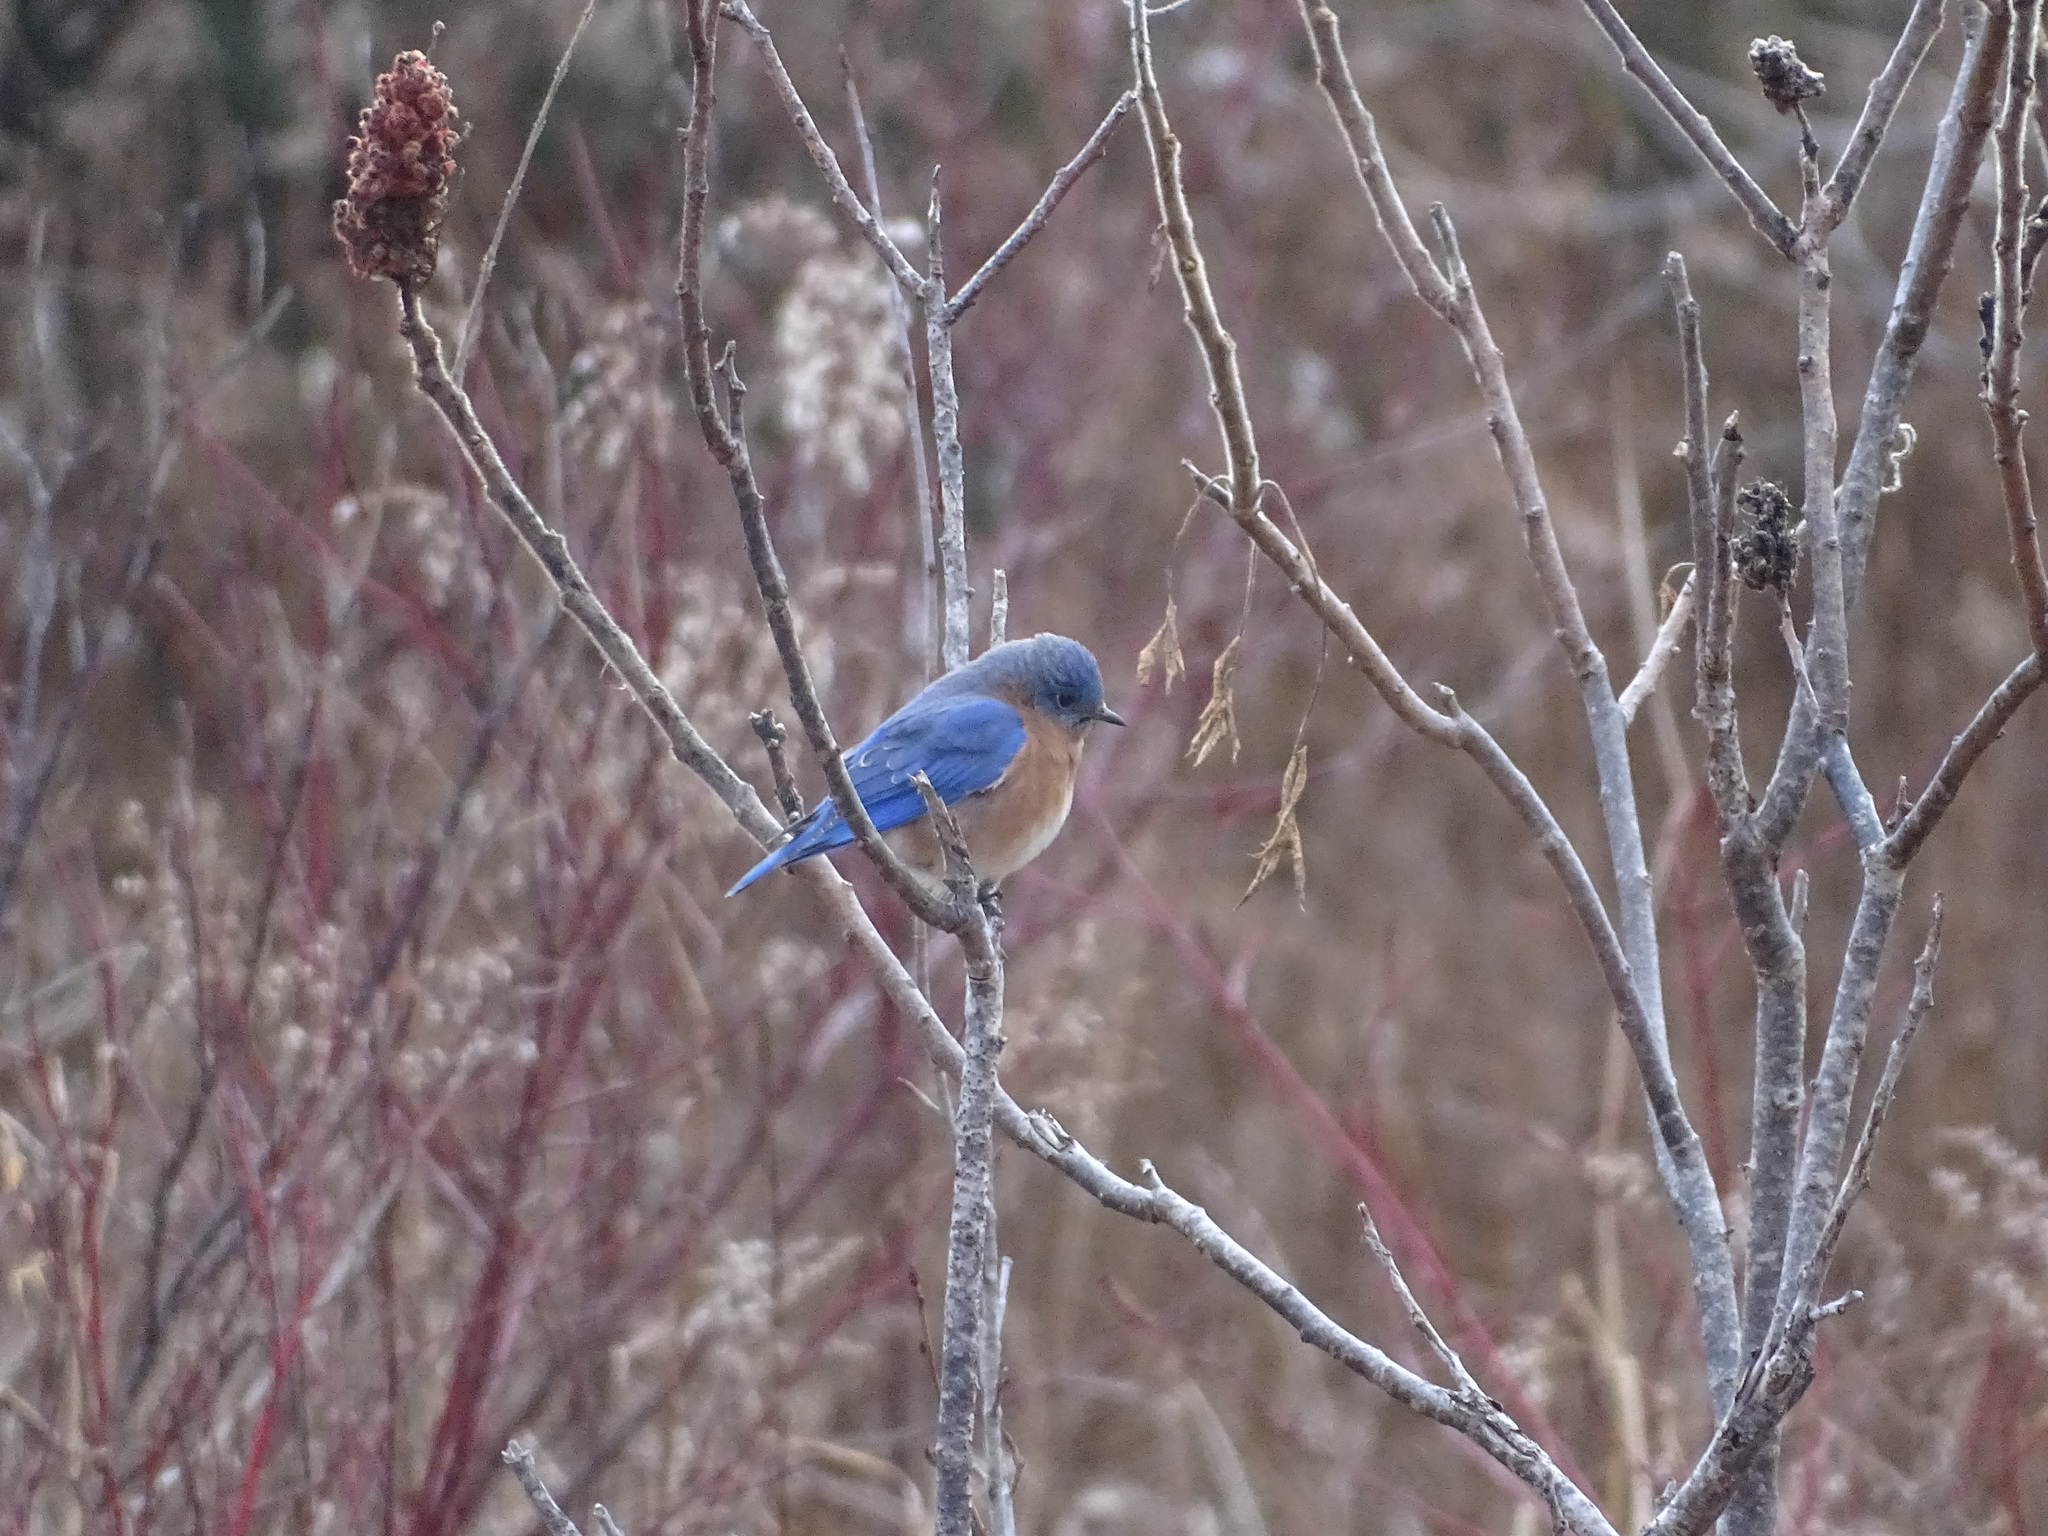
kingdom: Plantae
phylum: Tracheophyta
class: Magnoliopsida
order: Sapindales
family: Anacardiaceae
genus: Rhus
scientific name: Rhus typhina
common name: Staghorn sumac
